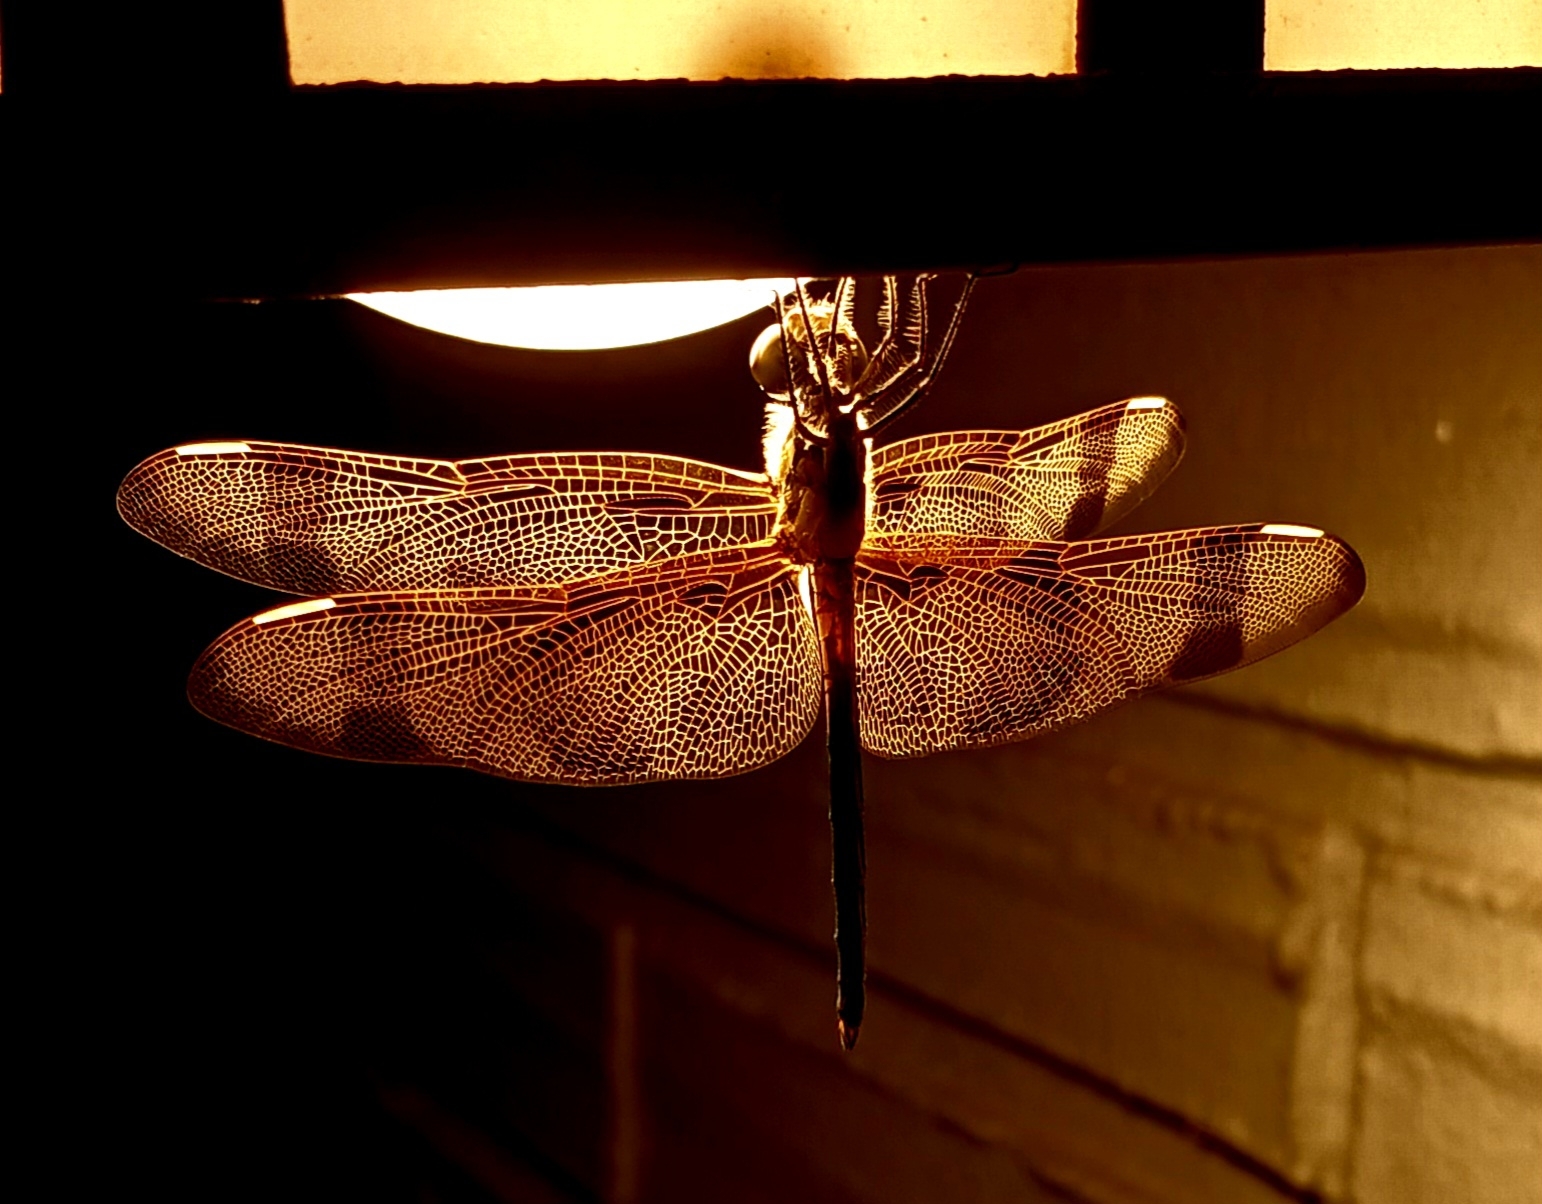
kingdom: Animalia
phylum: Arthropoda
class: Insecta
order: Odonata
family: Libellulidae
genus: Celithemis
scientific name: Celithemis eponina
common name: Halloween pennant
